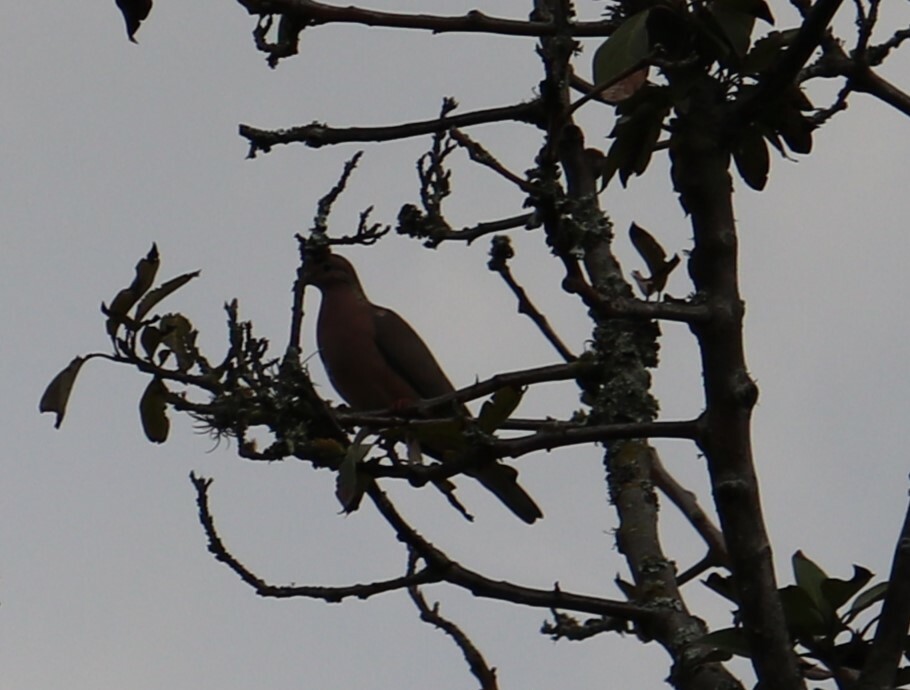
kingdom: Animalia
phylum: Chordata
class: Aves
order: Columbiformes
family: Columbidae
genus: Zenaida
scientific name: Zenaida auriculata
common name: Eared dove
